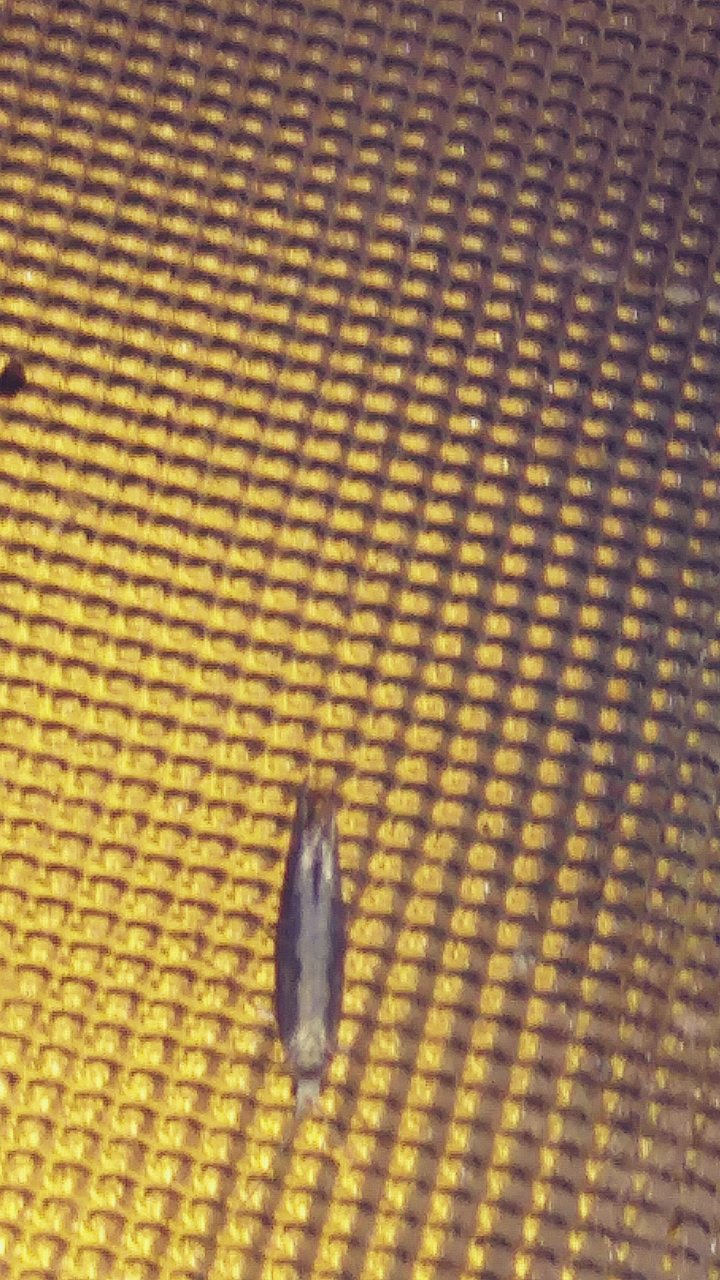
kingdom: Animalia
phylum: Arthropoda
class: Insecta
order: Lepidoptera
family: Plutellidae
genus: Plutella
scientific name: Plutella xylostella
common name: Diamond-back moth
